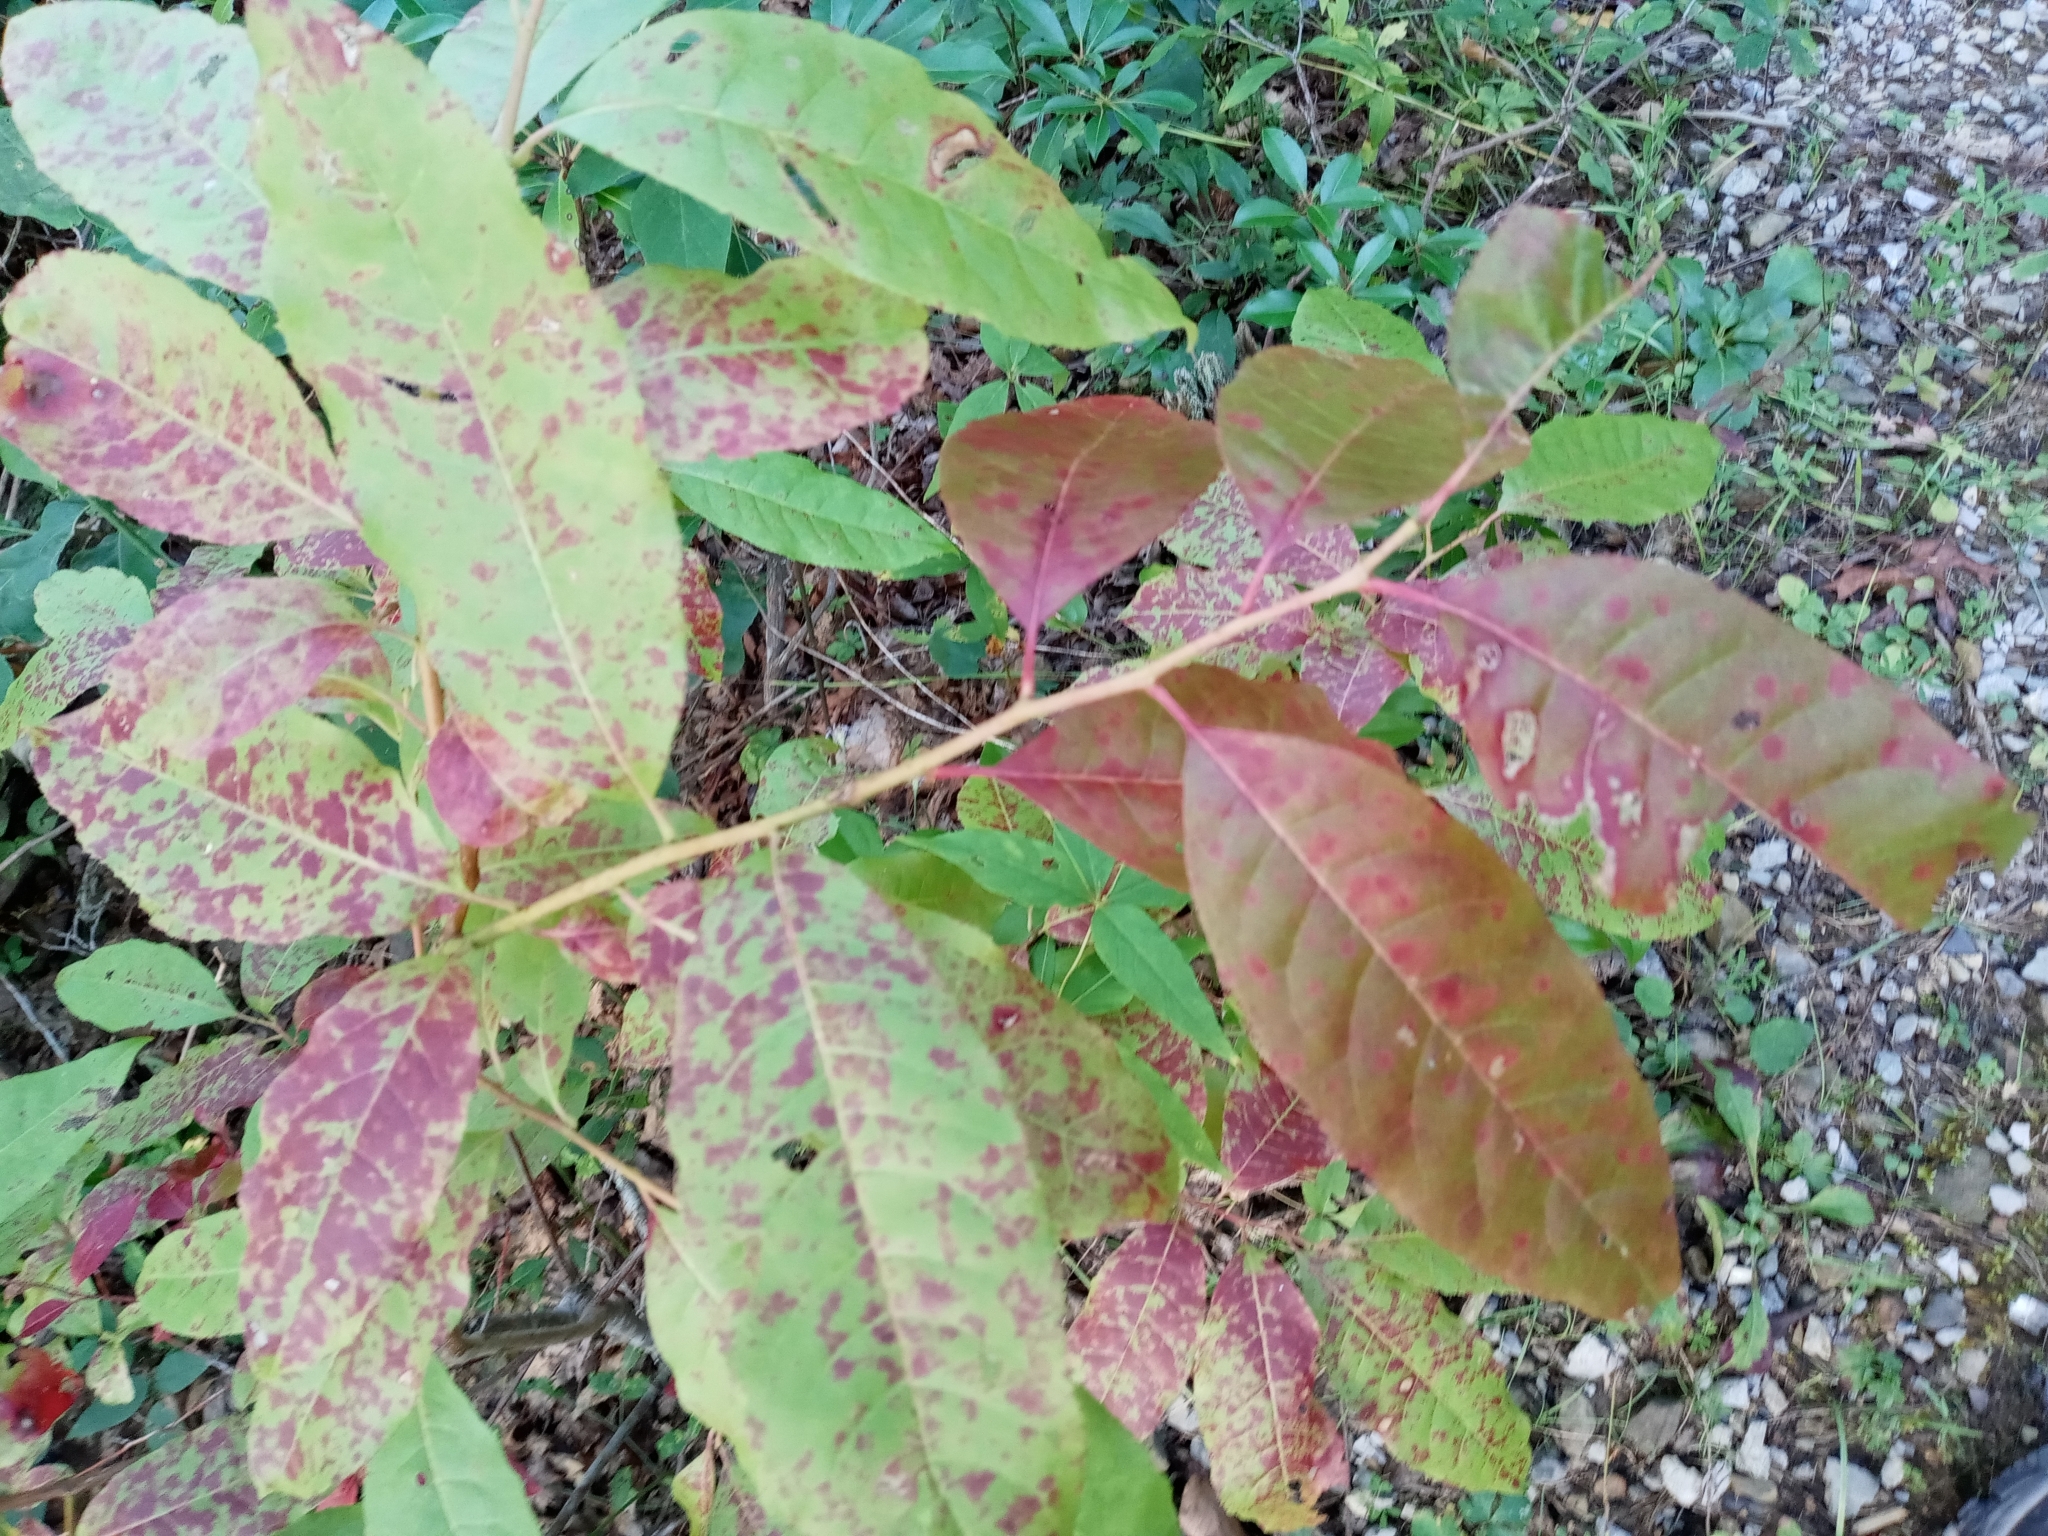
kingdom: Plantae
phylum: Tracheophyta
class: Magnoliopsida
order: Ericales
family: Ericaceae
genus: Oxydendrum
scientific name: Oxydendrum arboreum
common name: Sourwood
